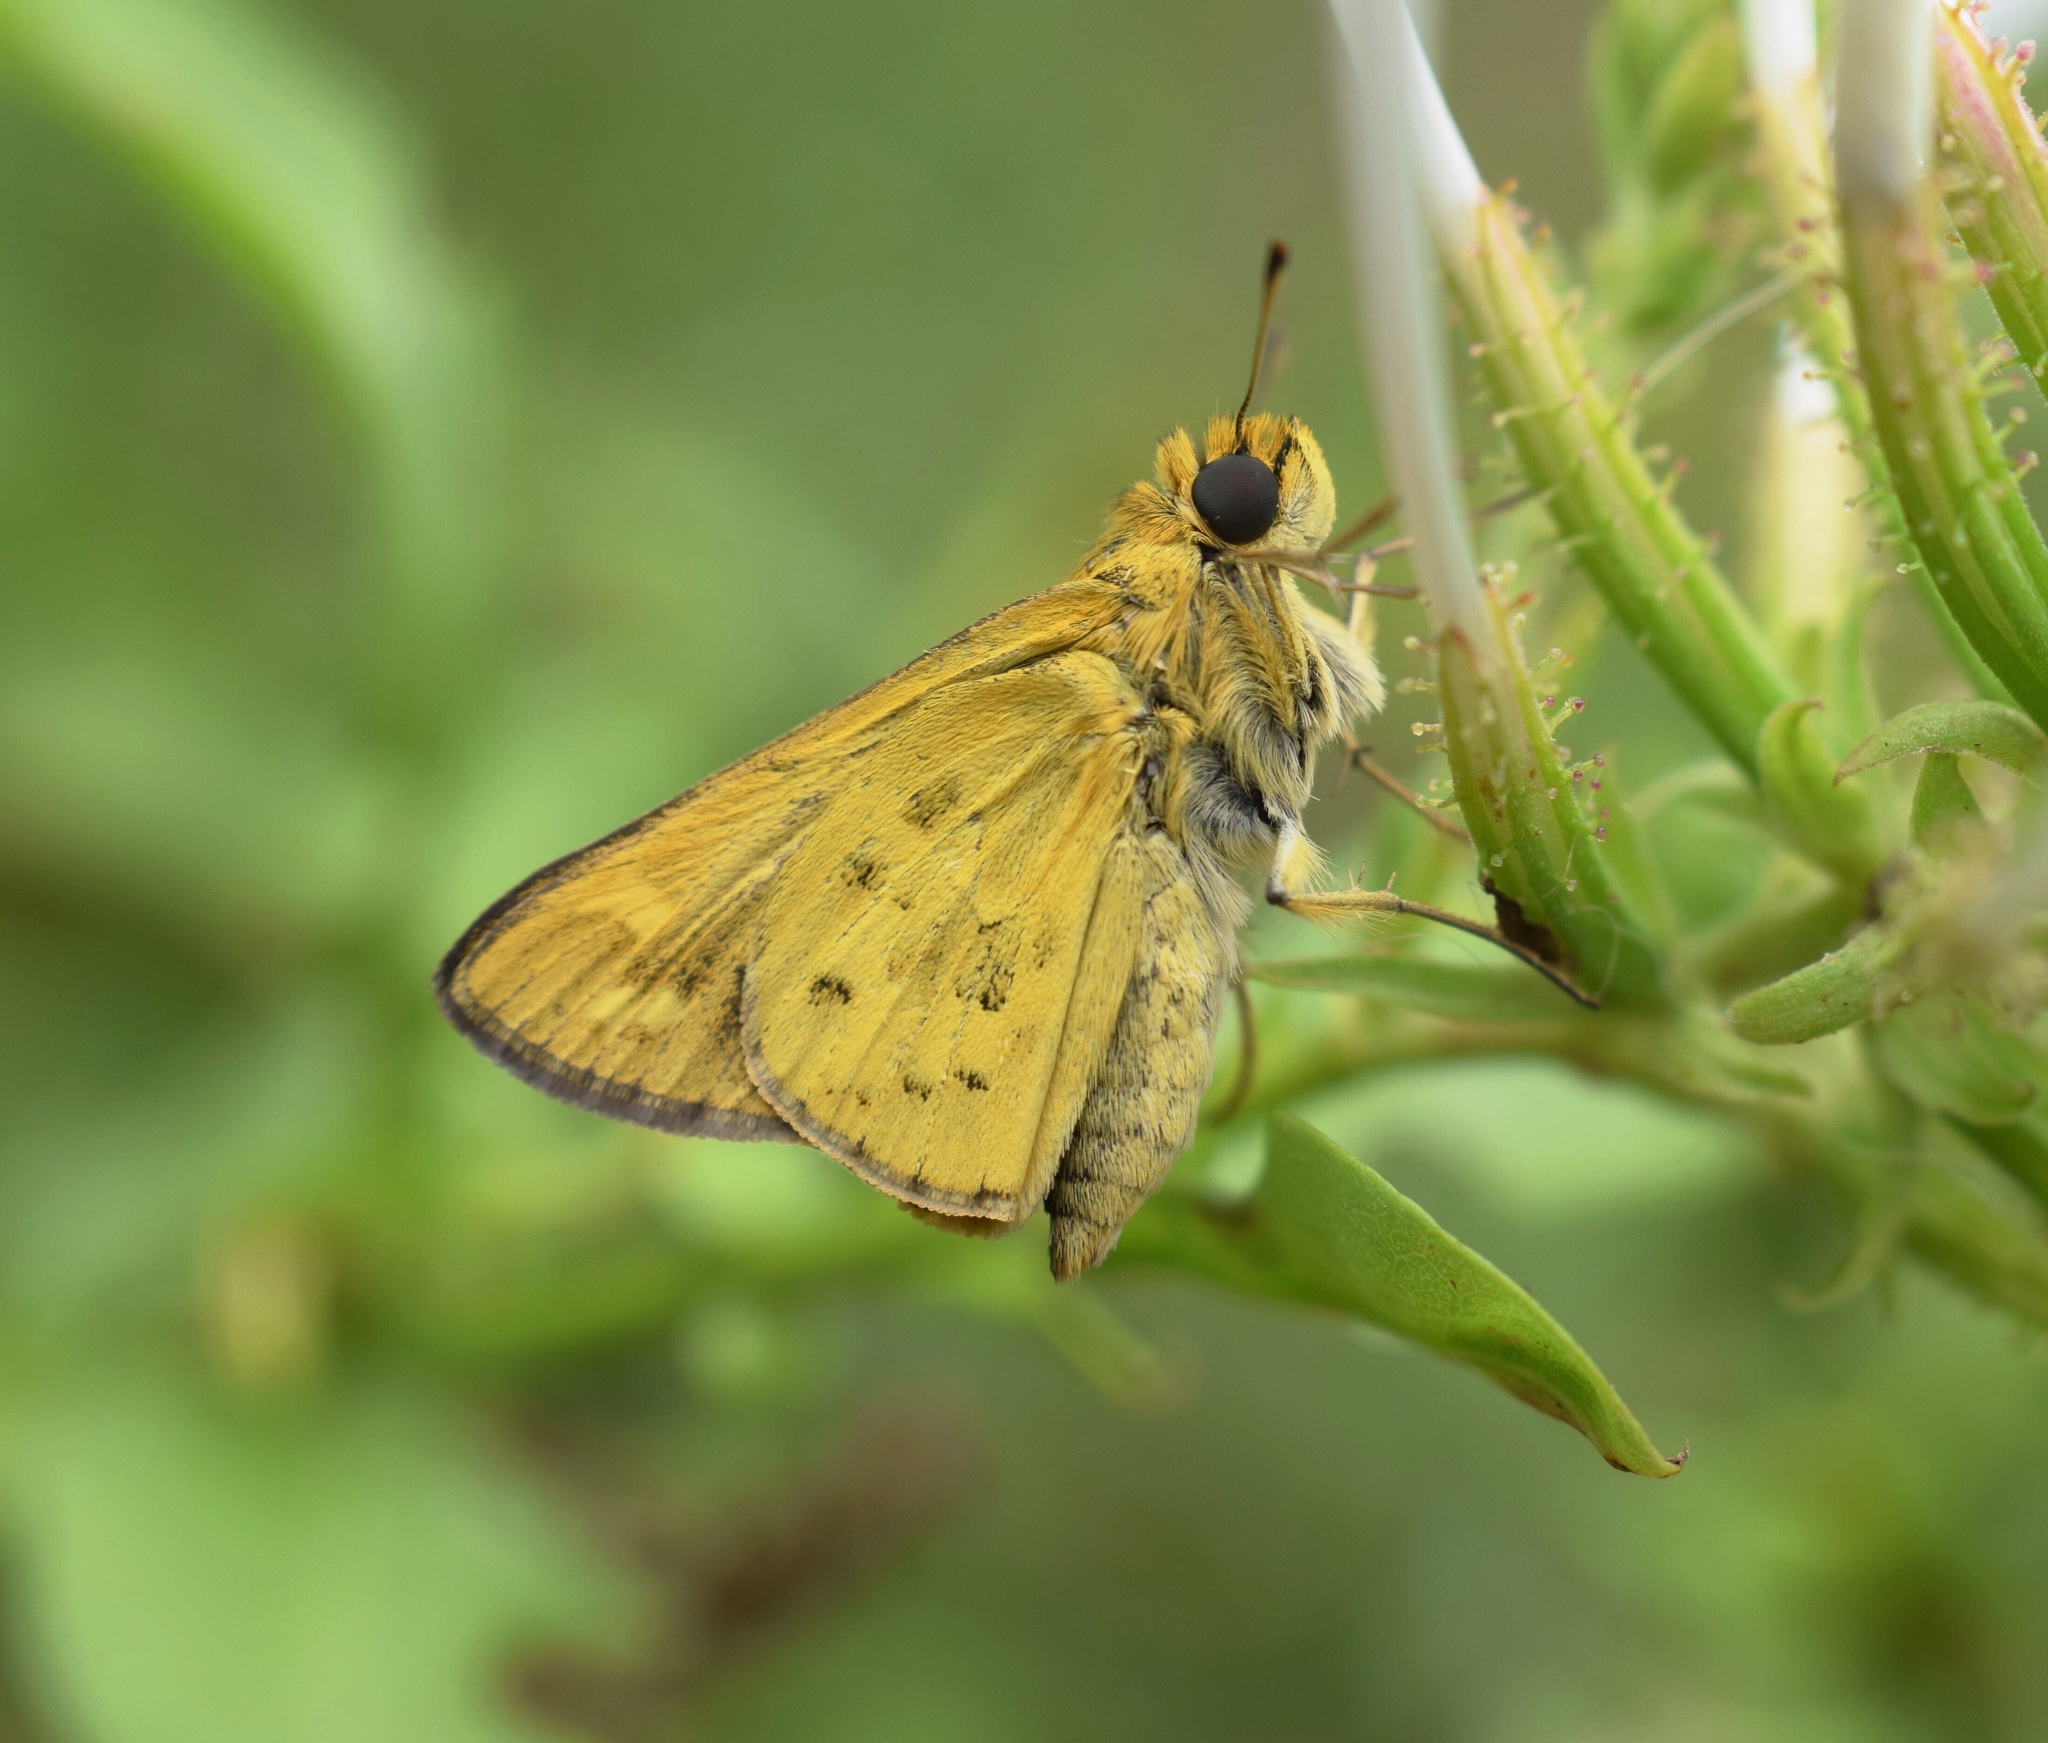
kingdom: Animalia
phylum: Arthropoda
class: Insecta
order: Hymenoptera
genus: Afrogenes
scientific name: Afrogenes
